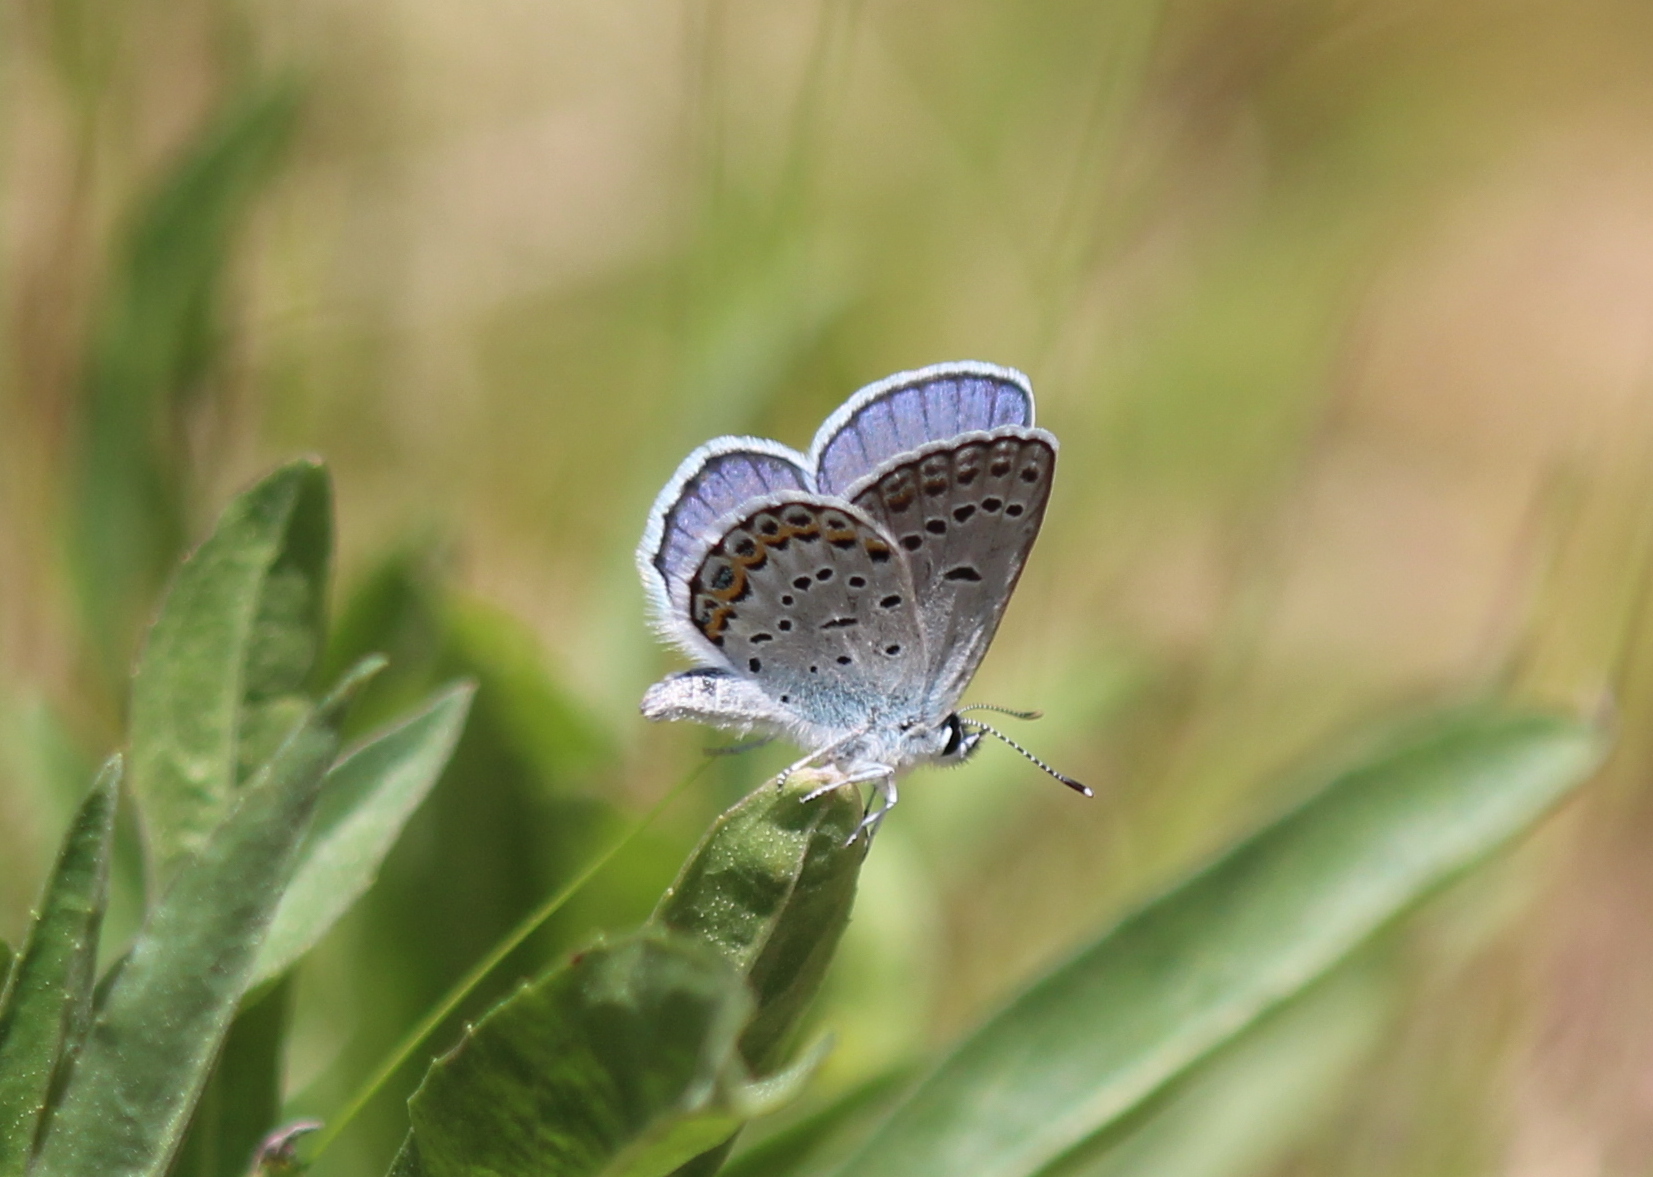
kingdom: Animalia
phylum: Arthropoda
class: Insecta
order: Lepidoptera
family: Lycaenidae
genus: Plebejus
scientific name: Plebejus samuelis
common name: Karner blue
